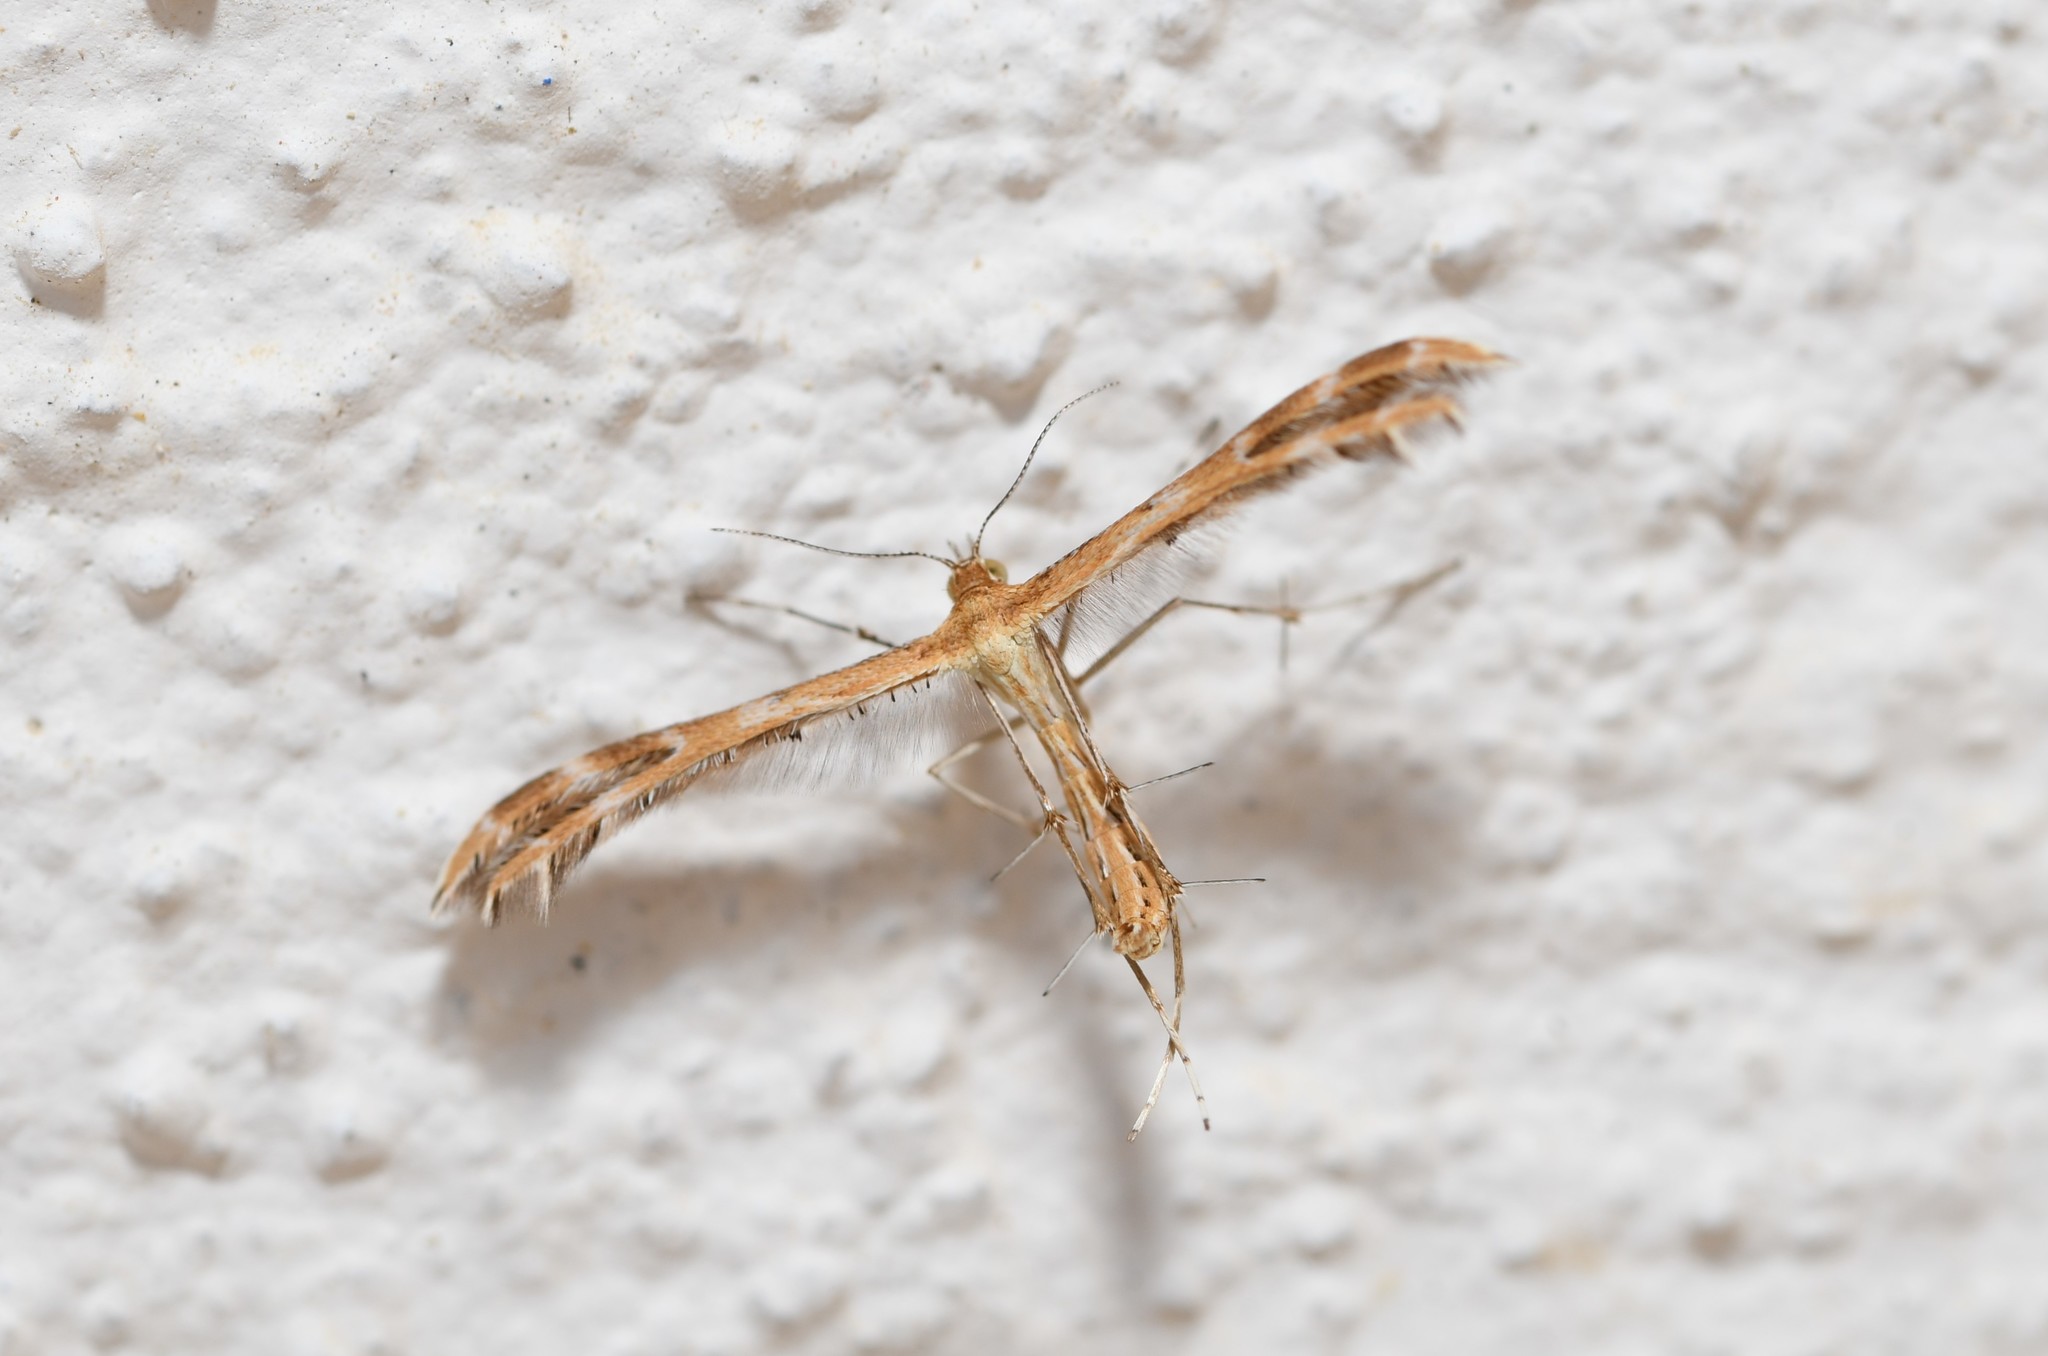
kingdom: Animalia
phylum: Arthropoda
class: Insecta
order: Lepidoptera
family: Pterophoridae
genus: Crombrugghia
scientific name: Crombrugghia distans
